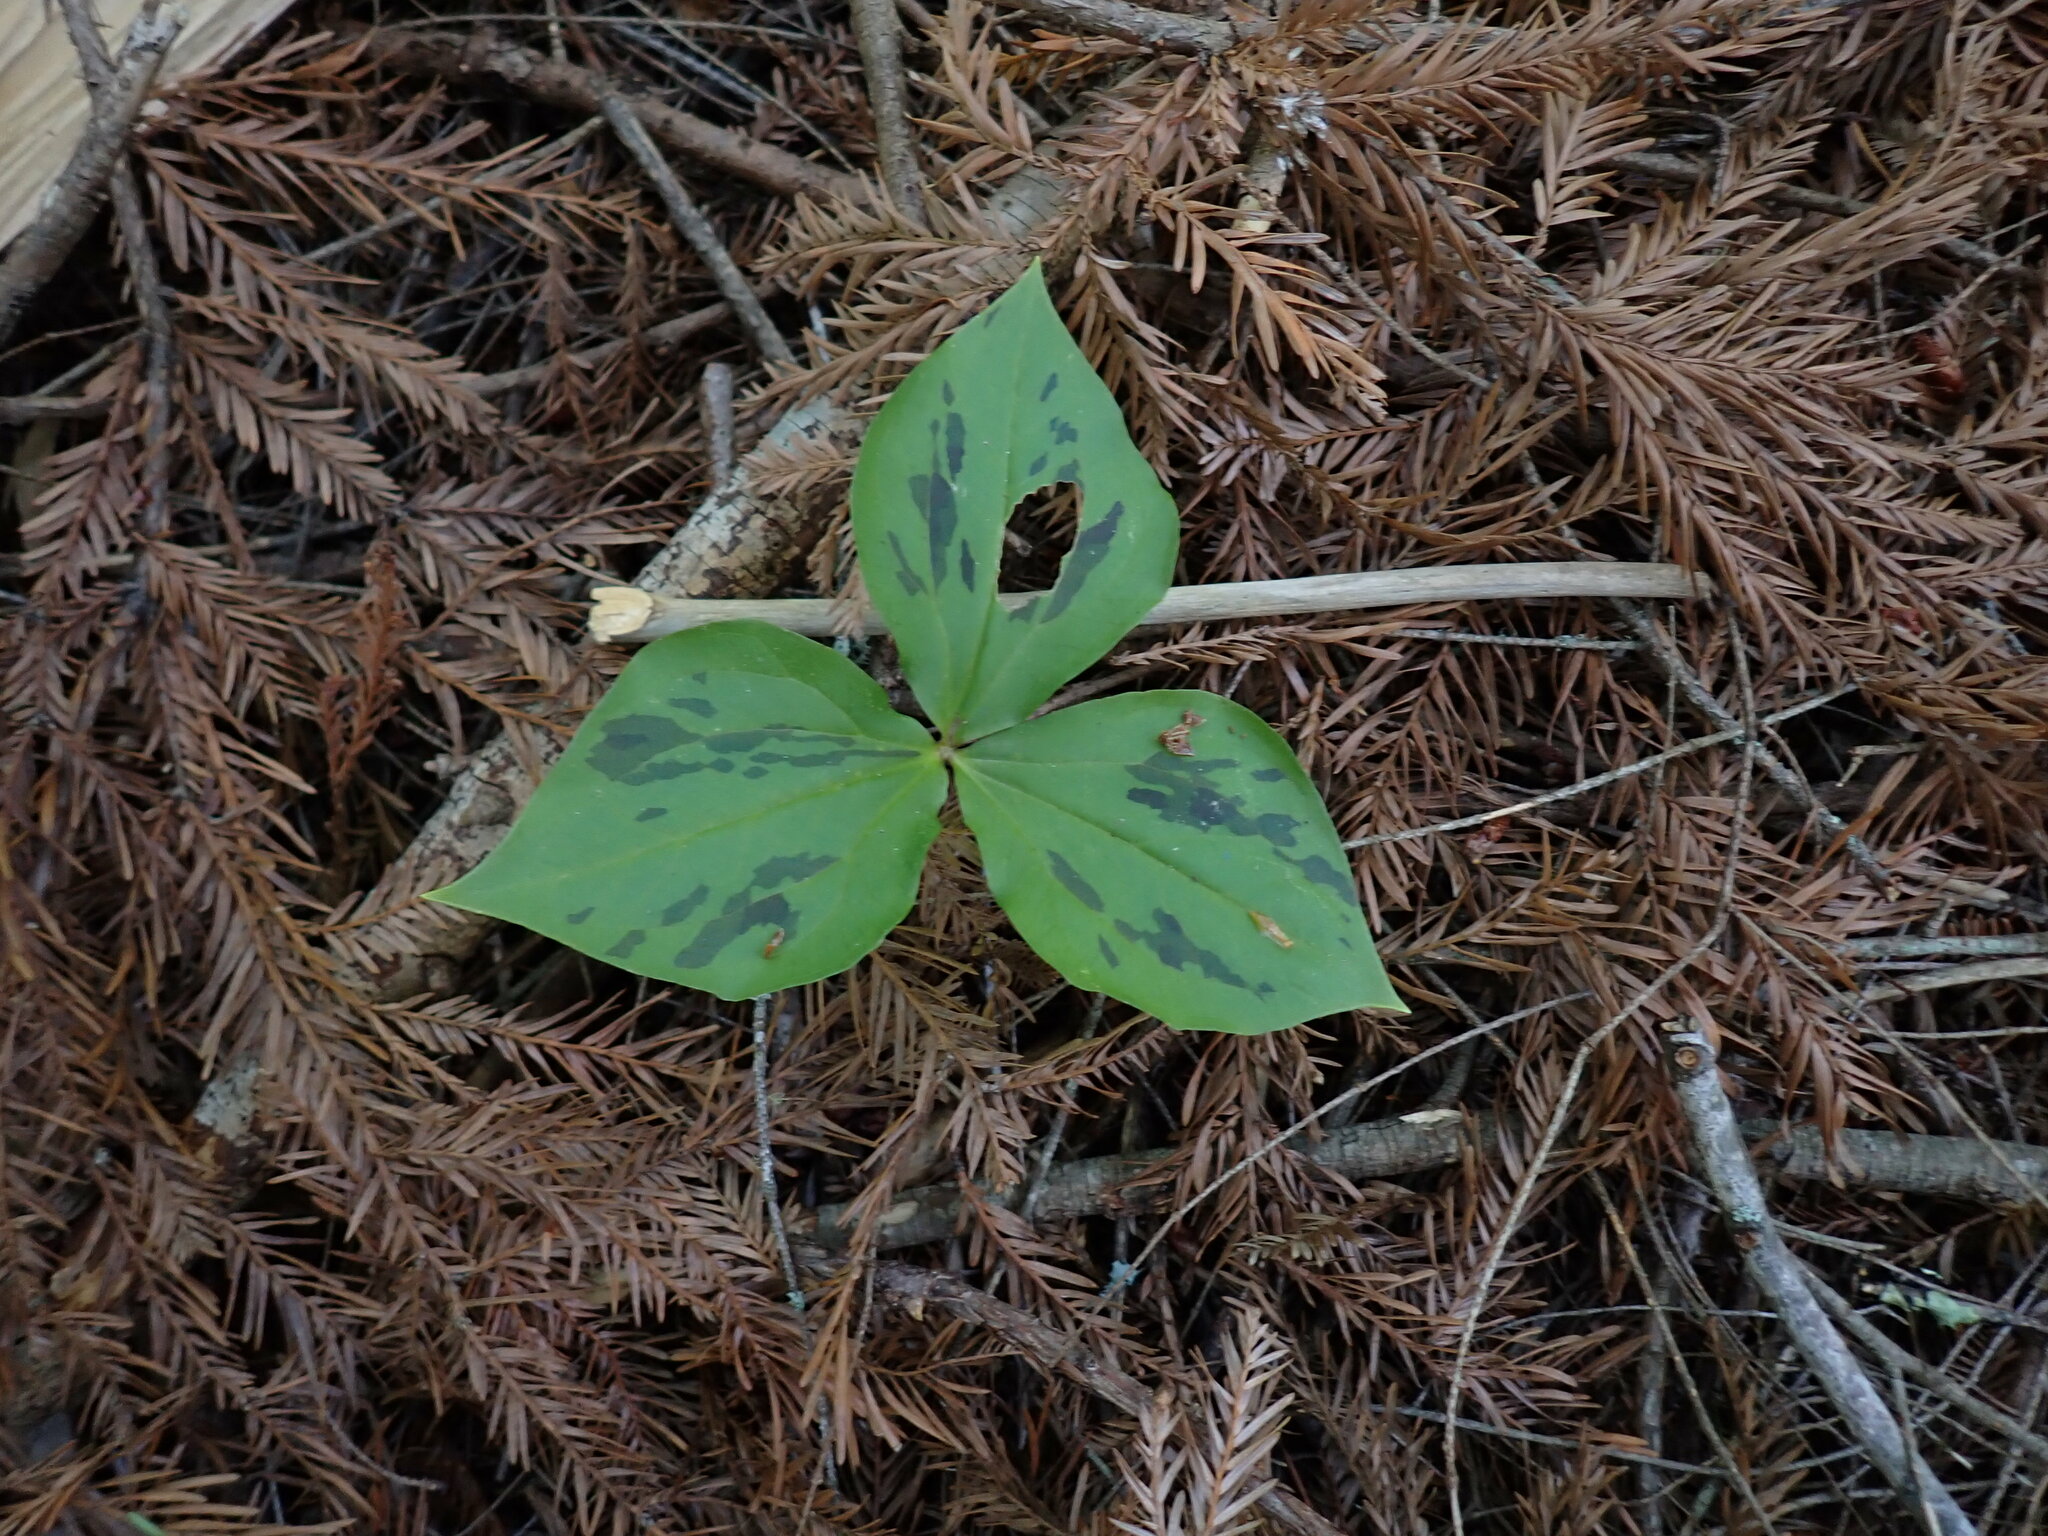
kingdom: Plantae
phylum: Tracheophyta
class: Liliopsida
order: Liliales
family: Melanthiaceae
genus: Trillium
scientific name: Trillium ovatum
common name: Pacific trillium
